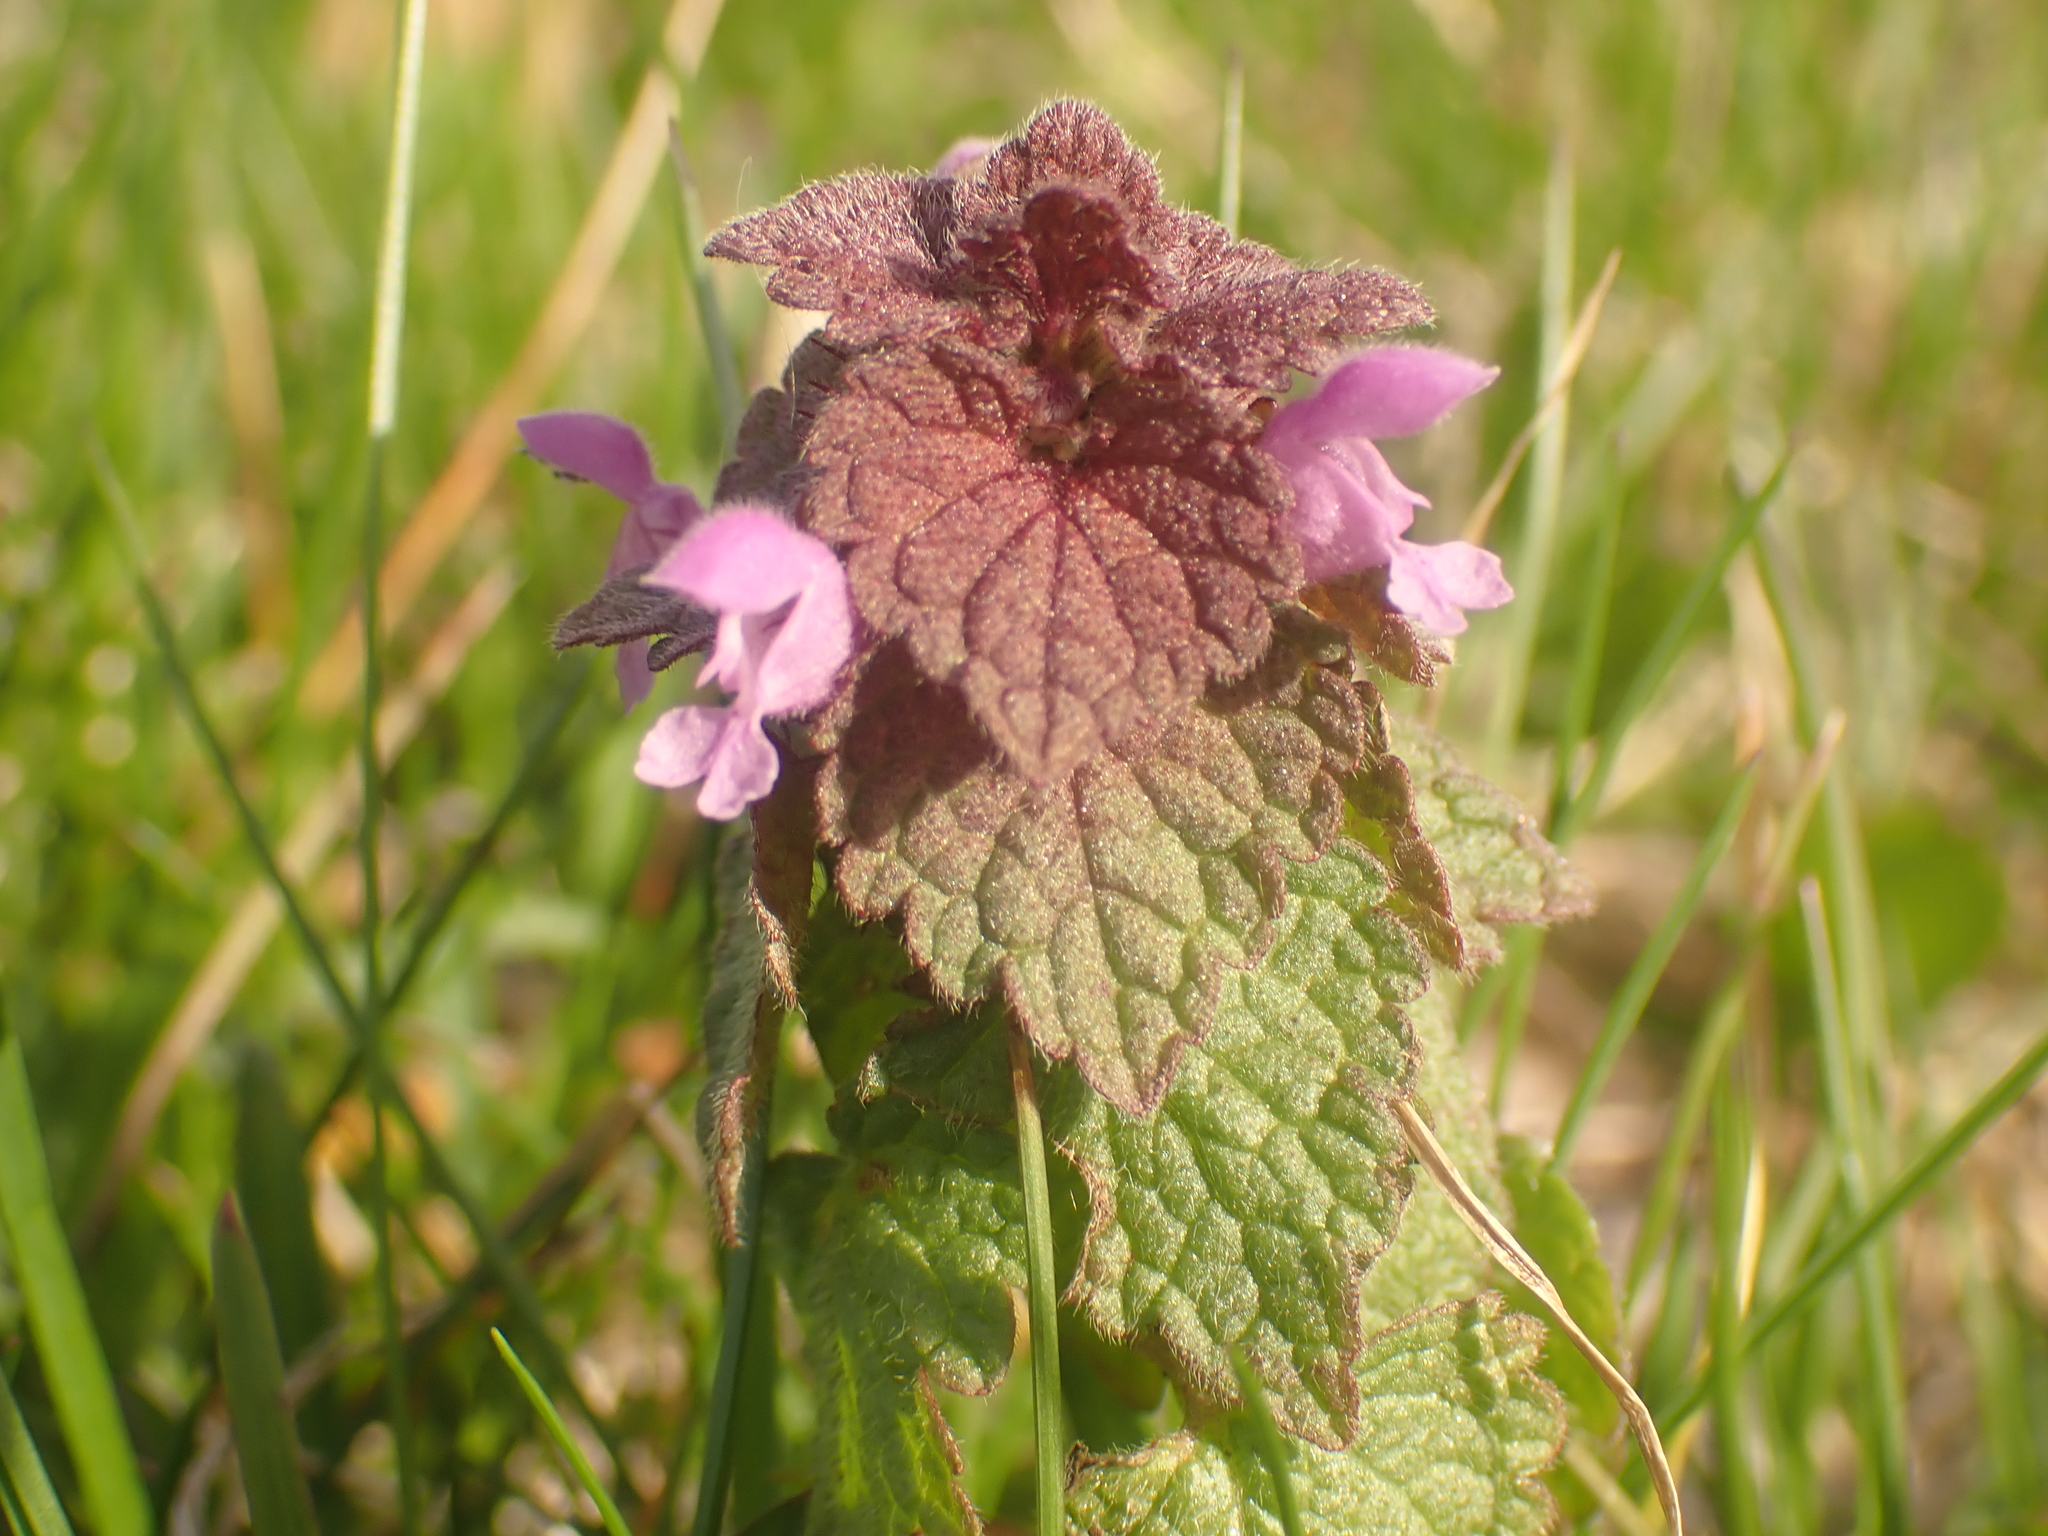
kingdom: Plantae
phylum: Tracheophyta
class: Magnoliopsida
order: Lamiales
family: Lamiaceae
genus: Lamium
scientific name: Lamium purpureum
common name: Red dead-nettle
